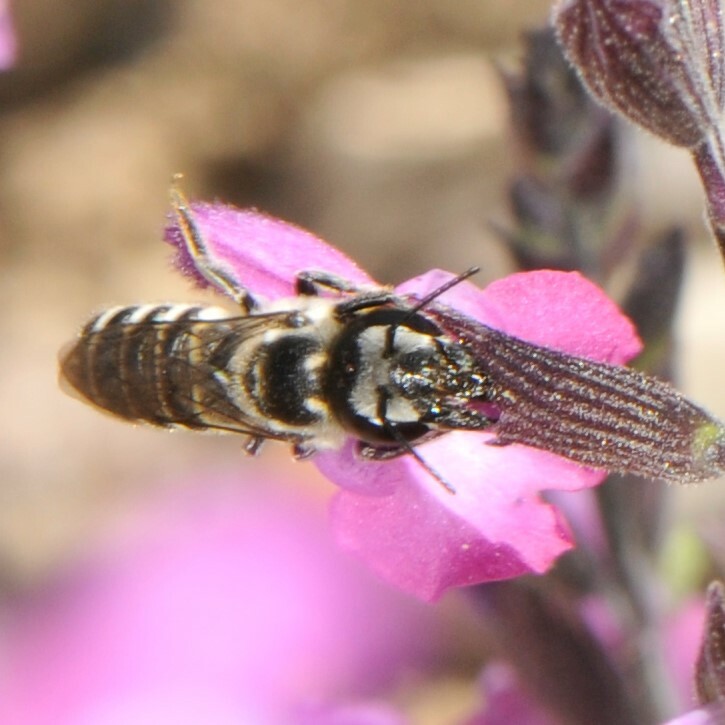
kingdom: Animalia
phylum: Arthropoda
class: Insecta
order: Hymenoptera
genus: Chelostomoides
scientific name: Chelostomoides
